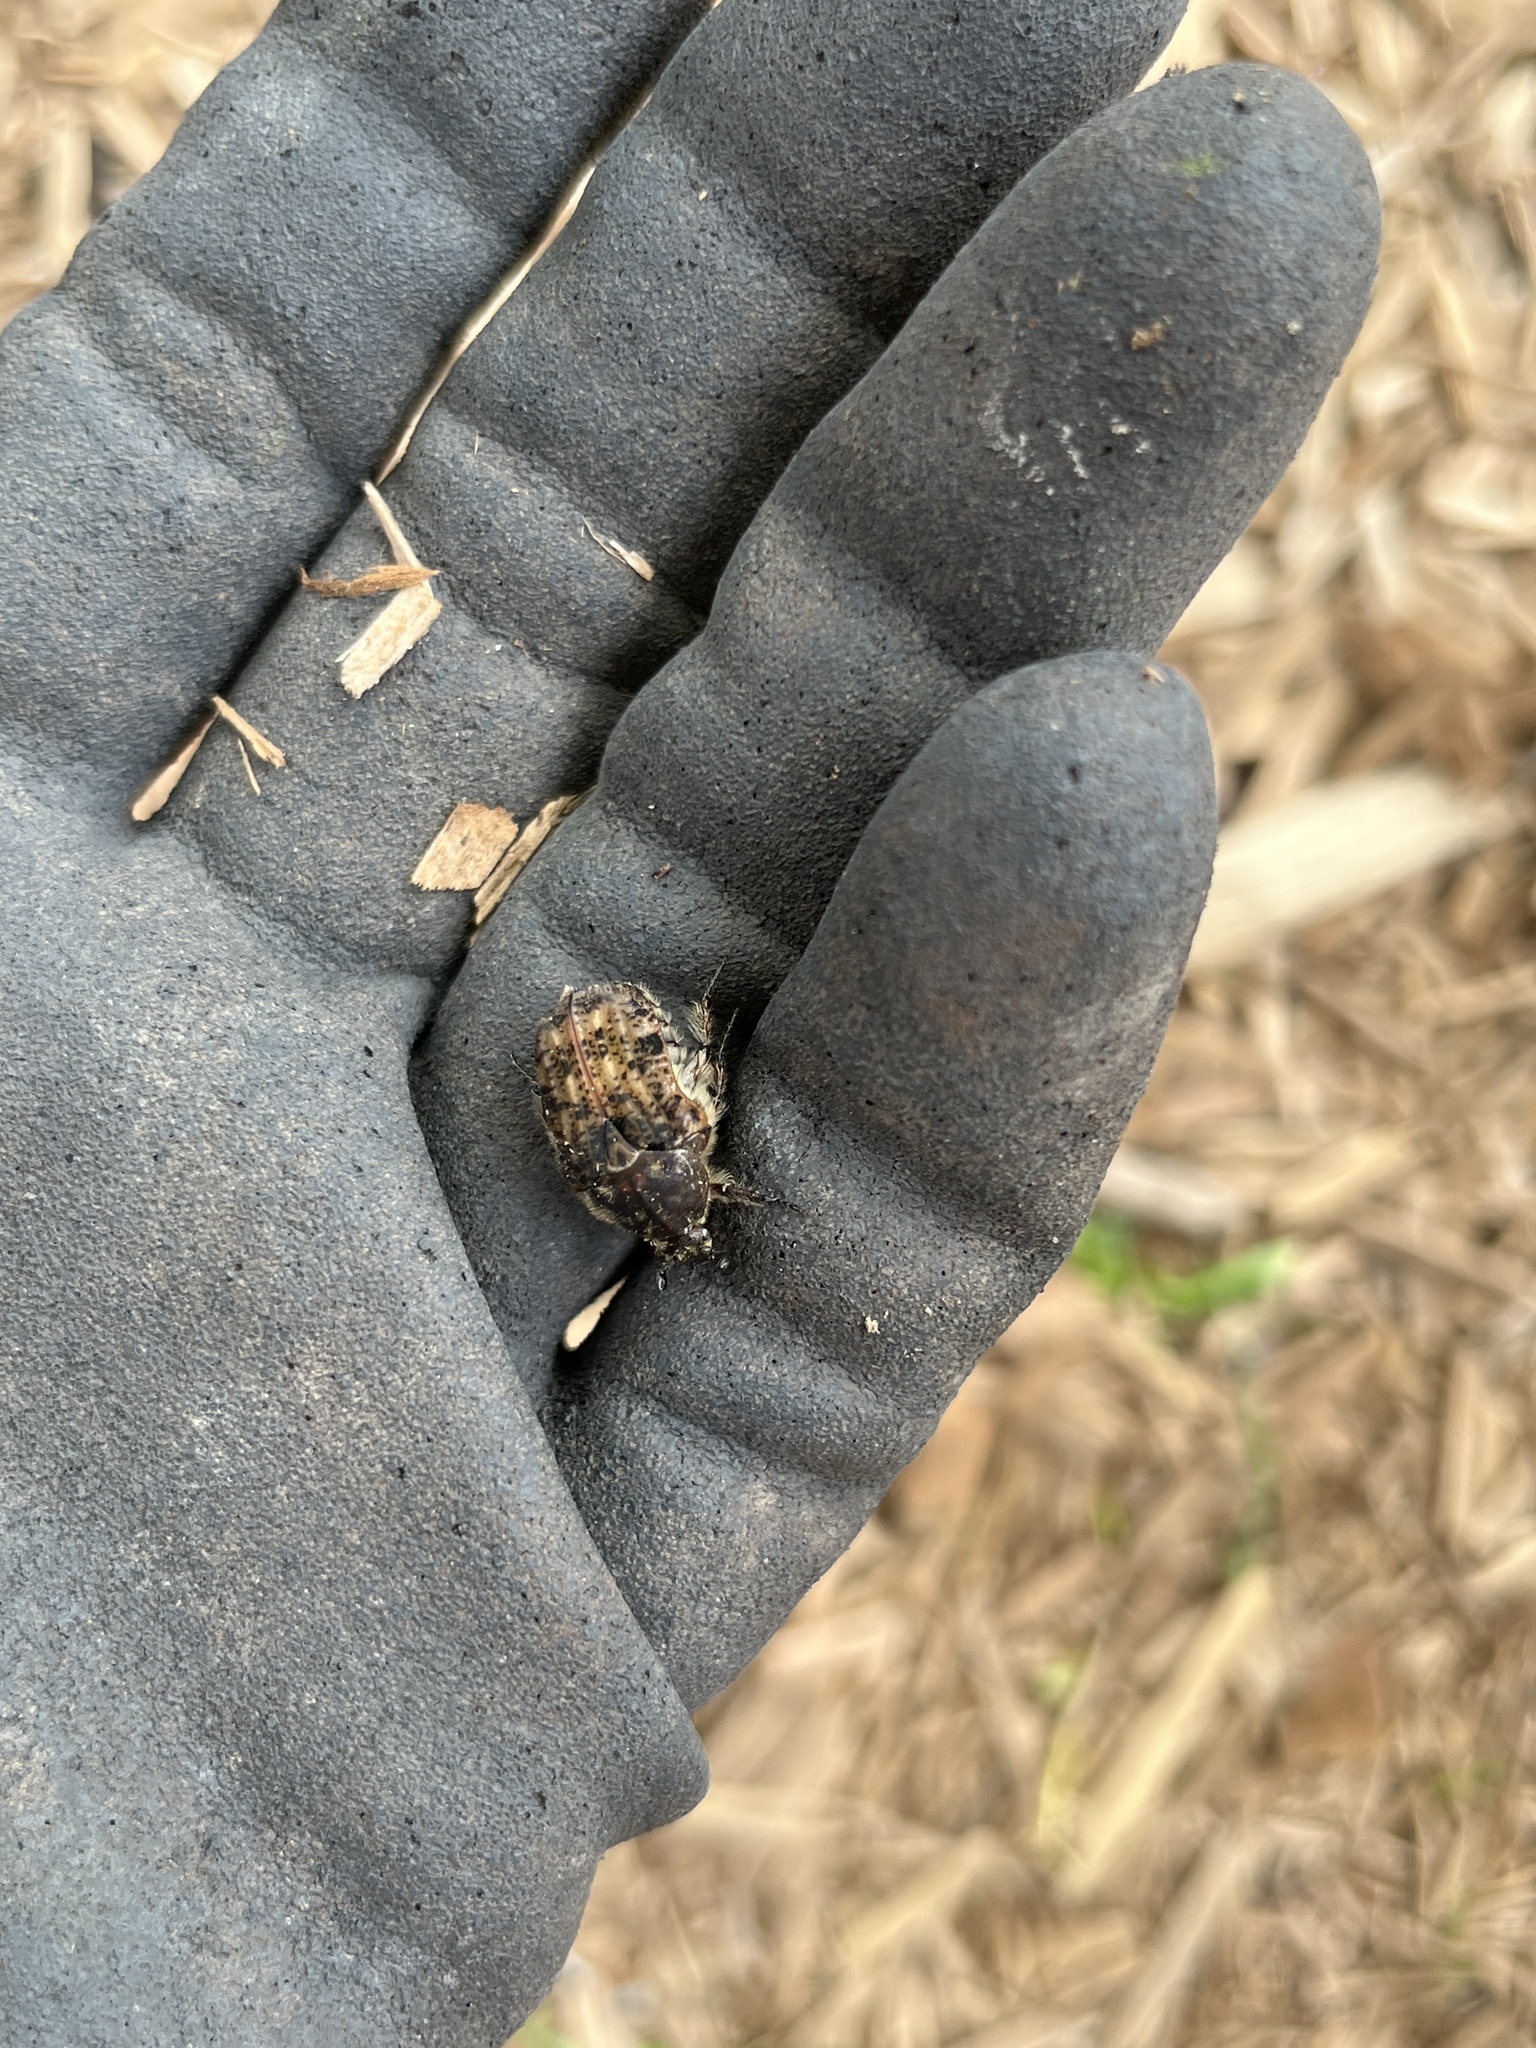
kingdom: Animalia
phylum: Arthropoda
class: Insecta
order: Coleoptera
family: Scarabaeidae
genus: Euphoria
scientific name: Euphoria inda
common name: Bumble flower beetle
